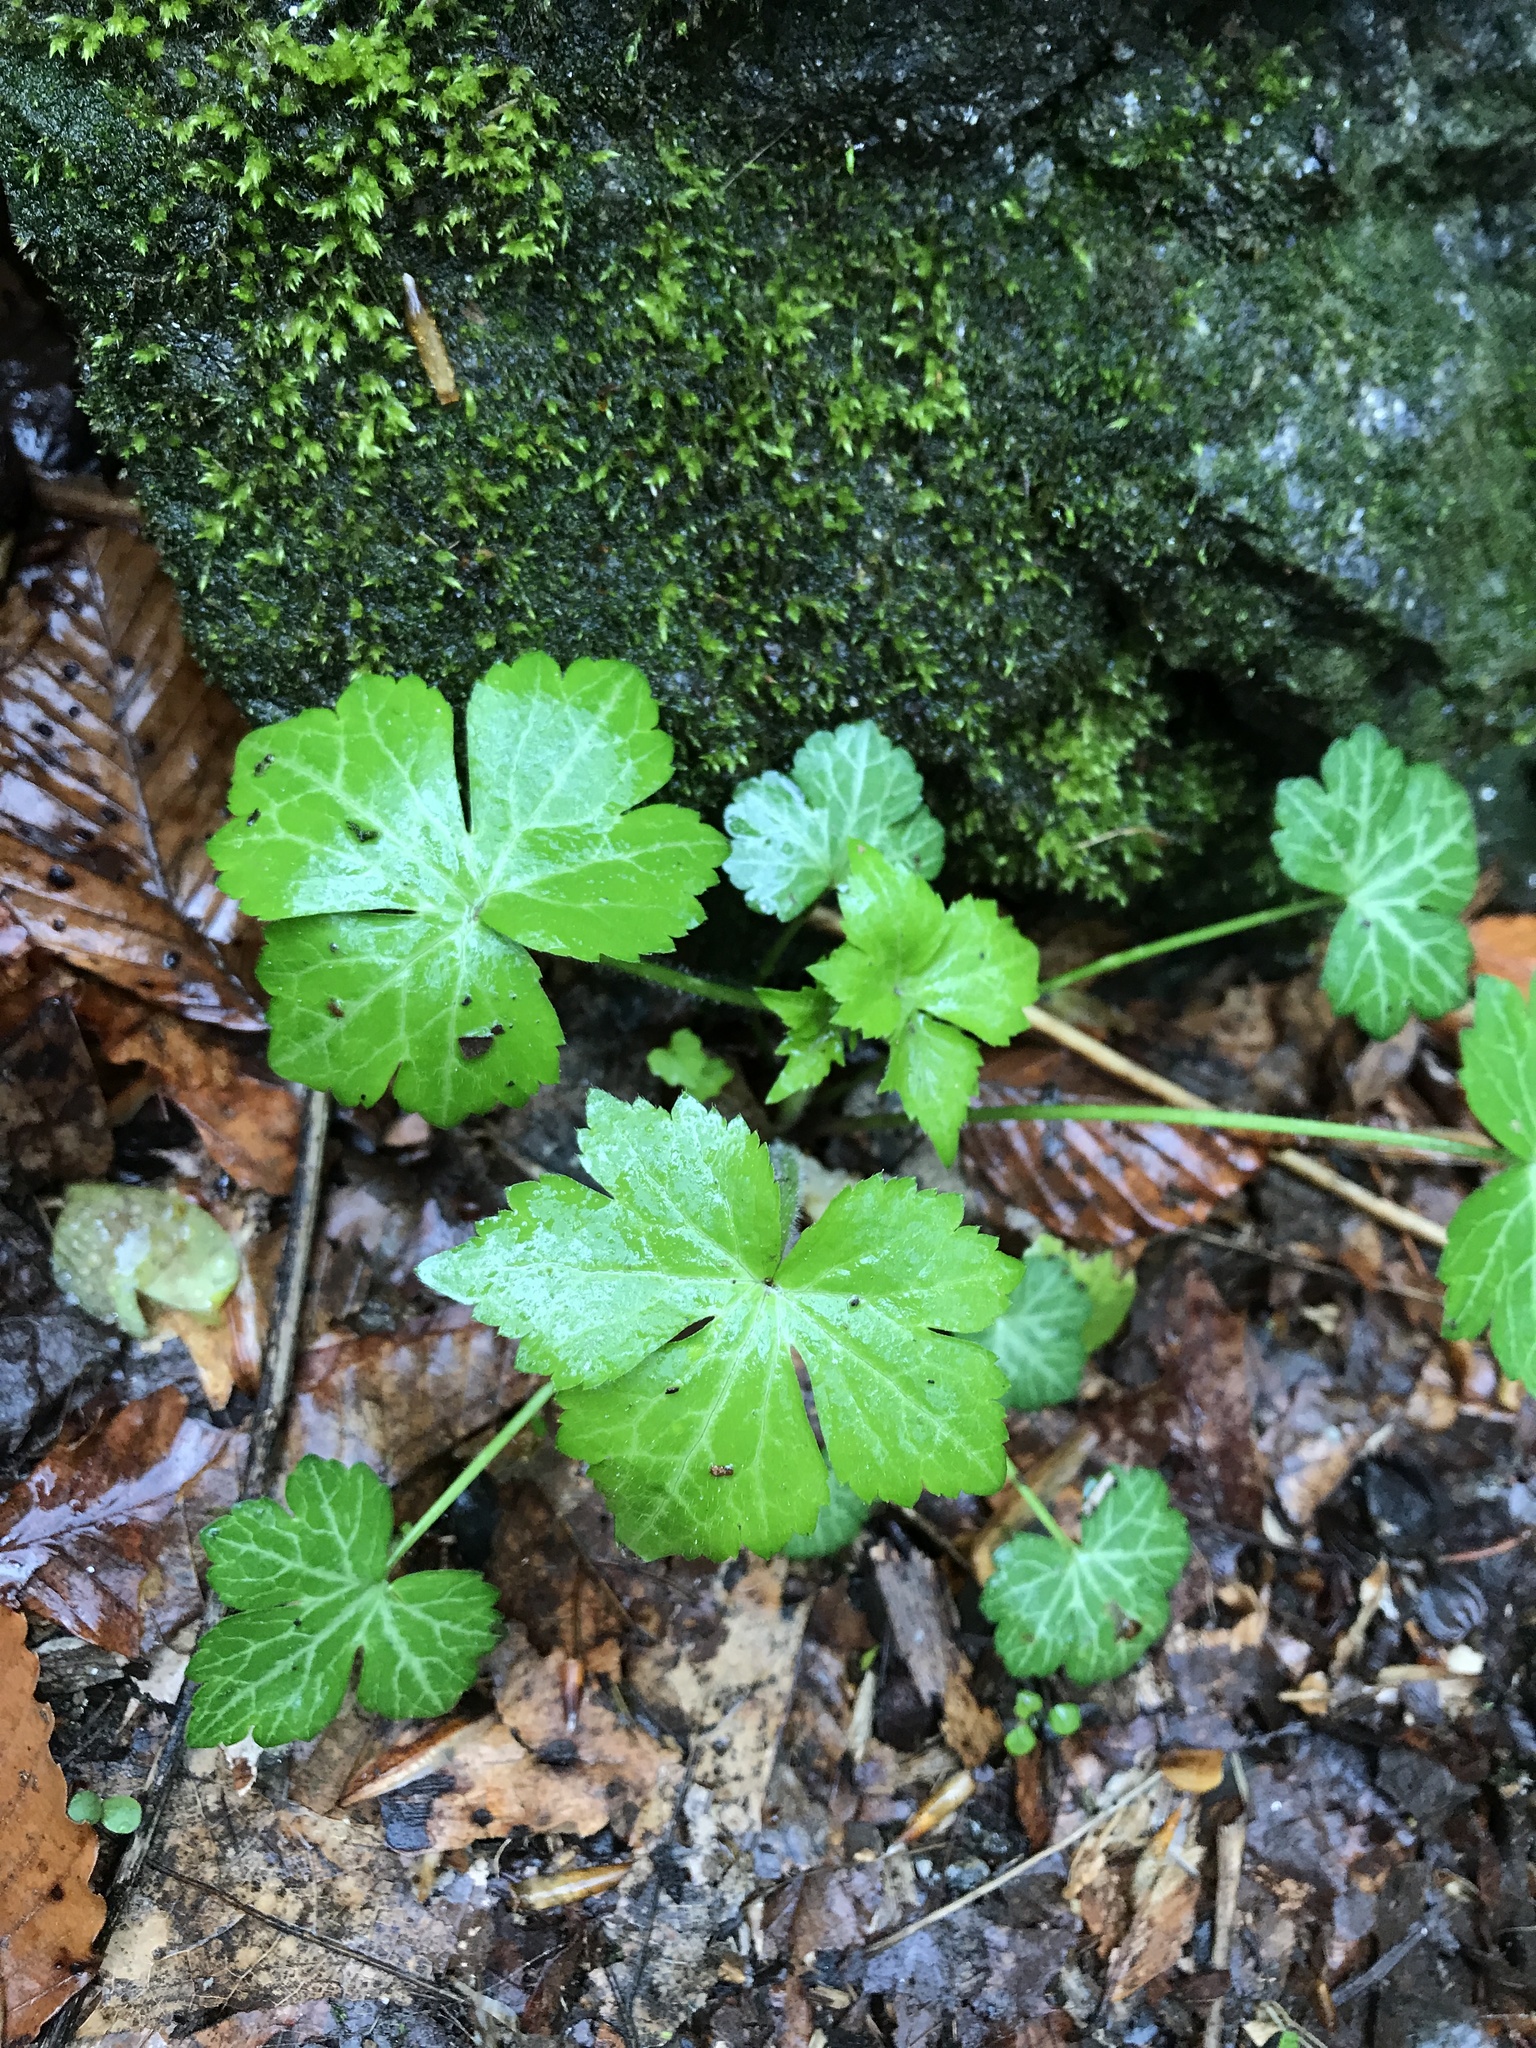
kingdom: Plantae
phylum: Tracheophyta
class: Magnoliopsida
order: Ranunculales
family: Ranunculaceae
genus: Ranunculus
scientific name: Ranunculus recurvatus
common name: Blisterwort
